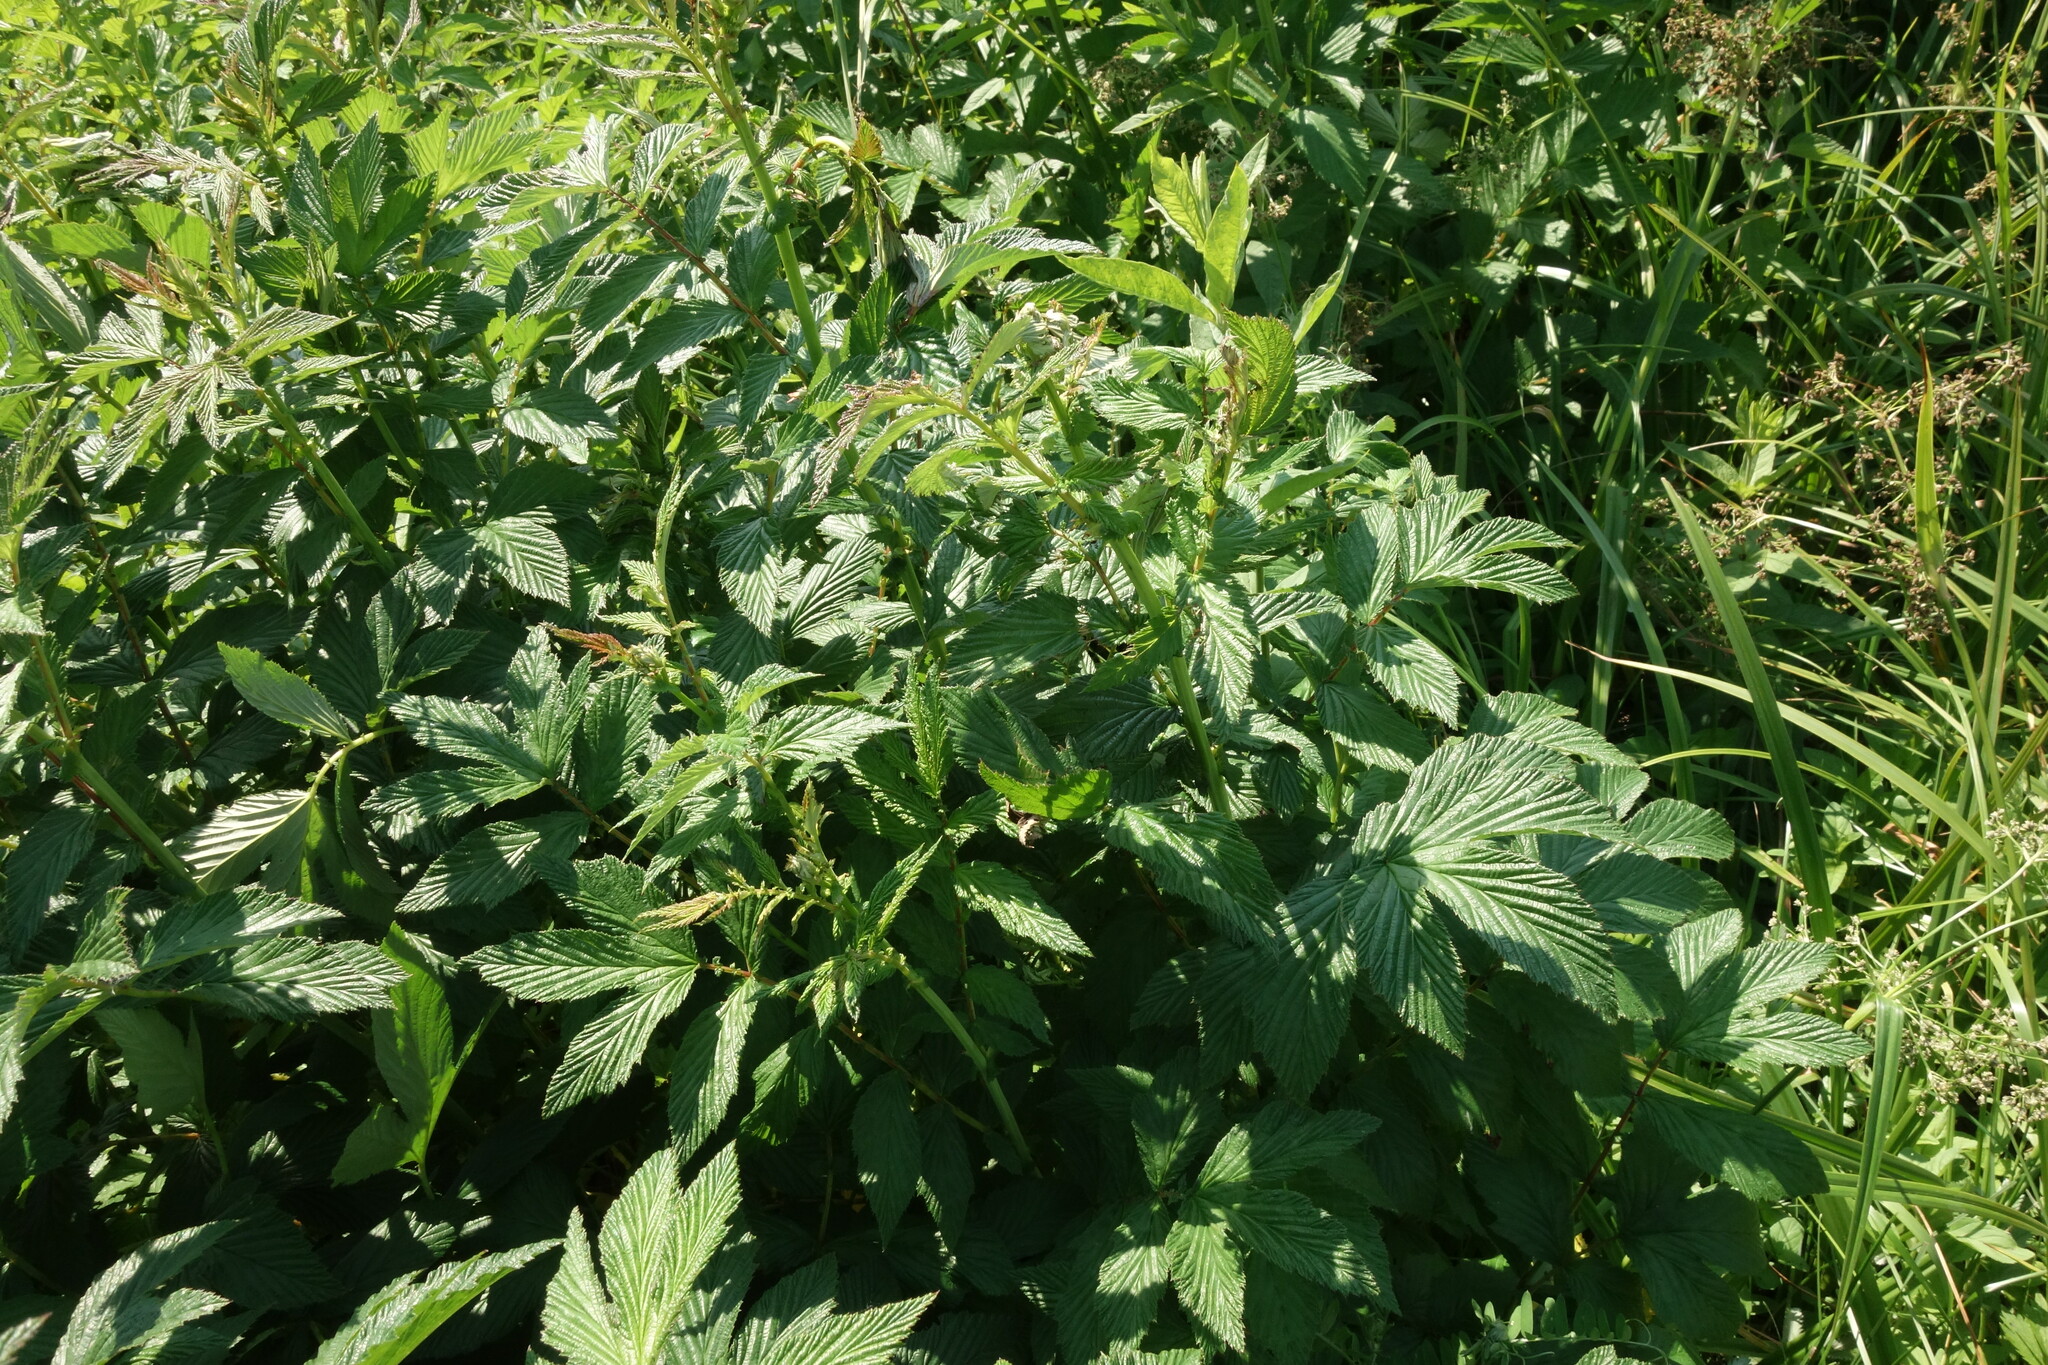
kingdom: Plantae
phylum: Tracheophyta
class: Magnoliopsida
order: Rosales
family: Rosaceae
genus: Filipendula
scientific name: Filipendula ulmaria
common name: Meadowsweet
